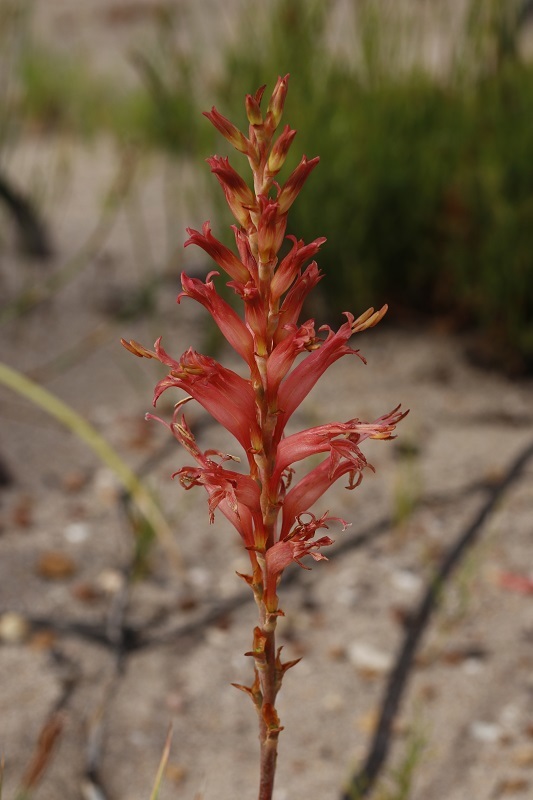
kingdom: Plantae
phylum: Tracheophyta
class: Liliopsida
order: Asparagales
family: Iridaceae
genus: Tritoniopsis
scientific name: Tritoniopsis antholyza
